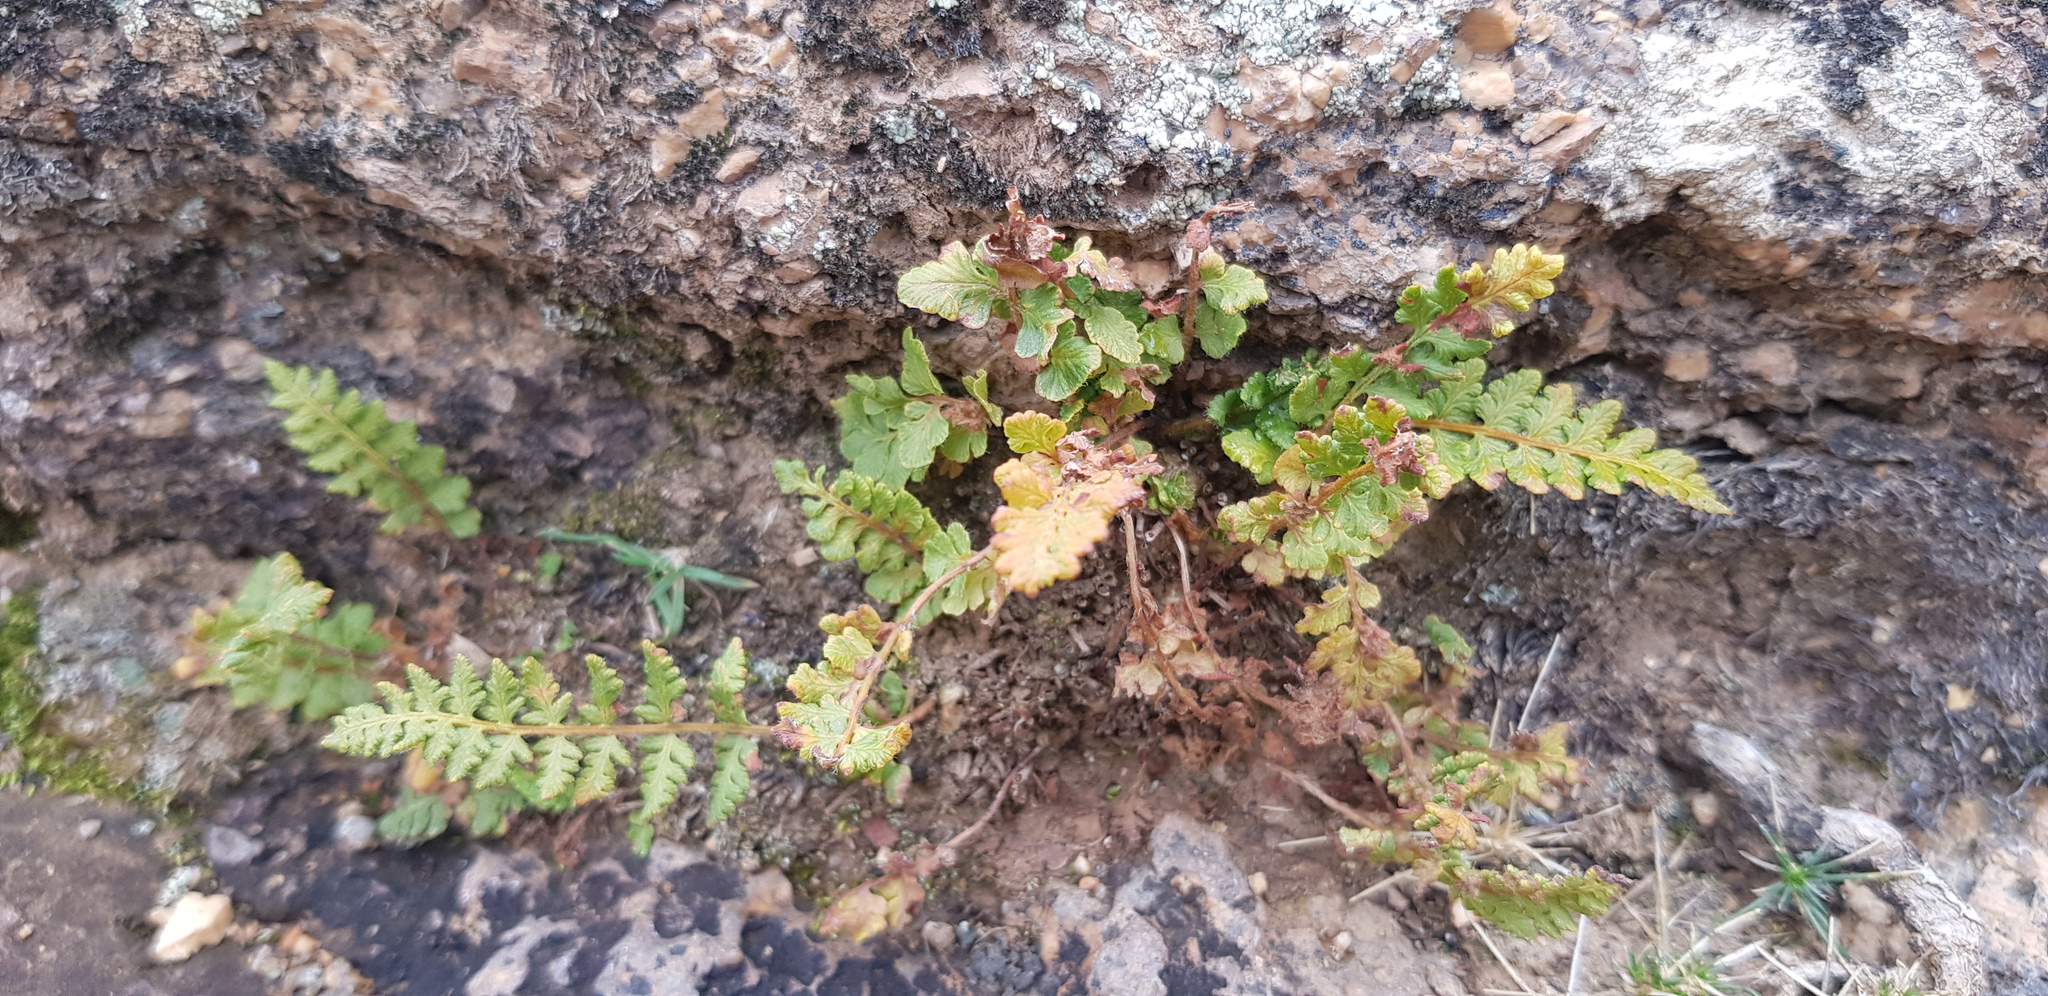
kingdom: Plantae
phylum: Tracheophyta
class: Polypodiopsida
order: Polypodiales
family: Woodsiaceae
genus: Woodsia
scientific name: Woodsia ilvensis
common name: Fragrant woodsia
